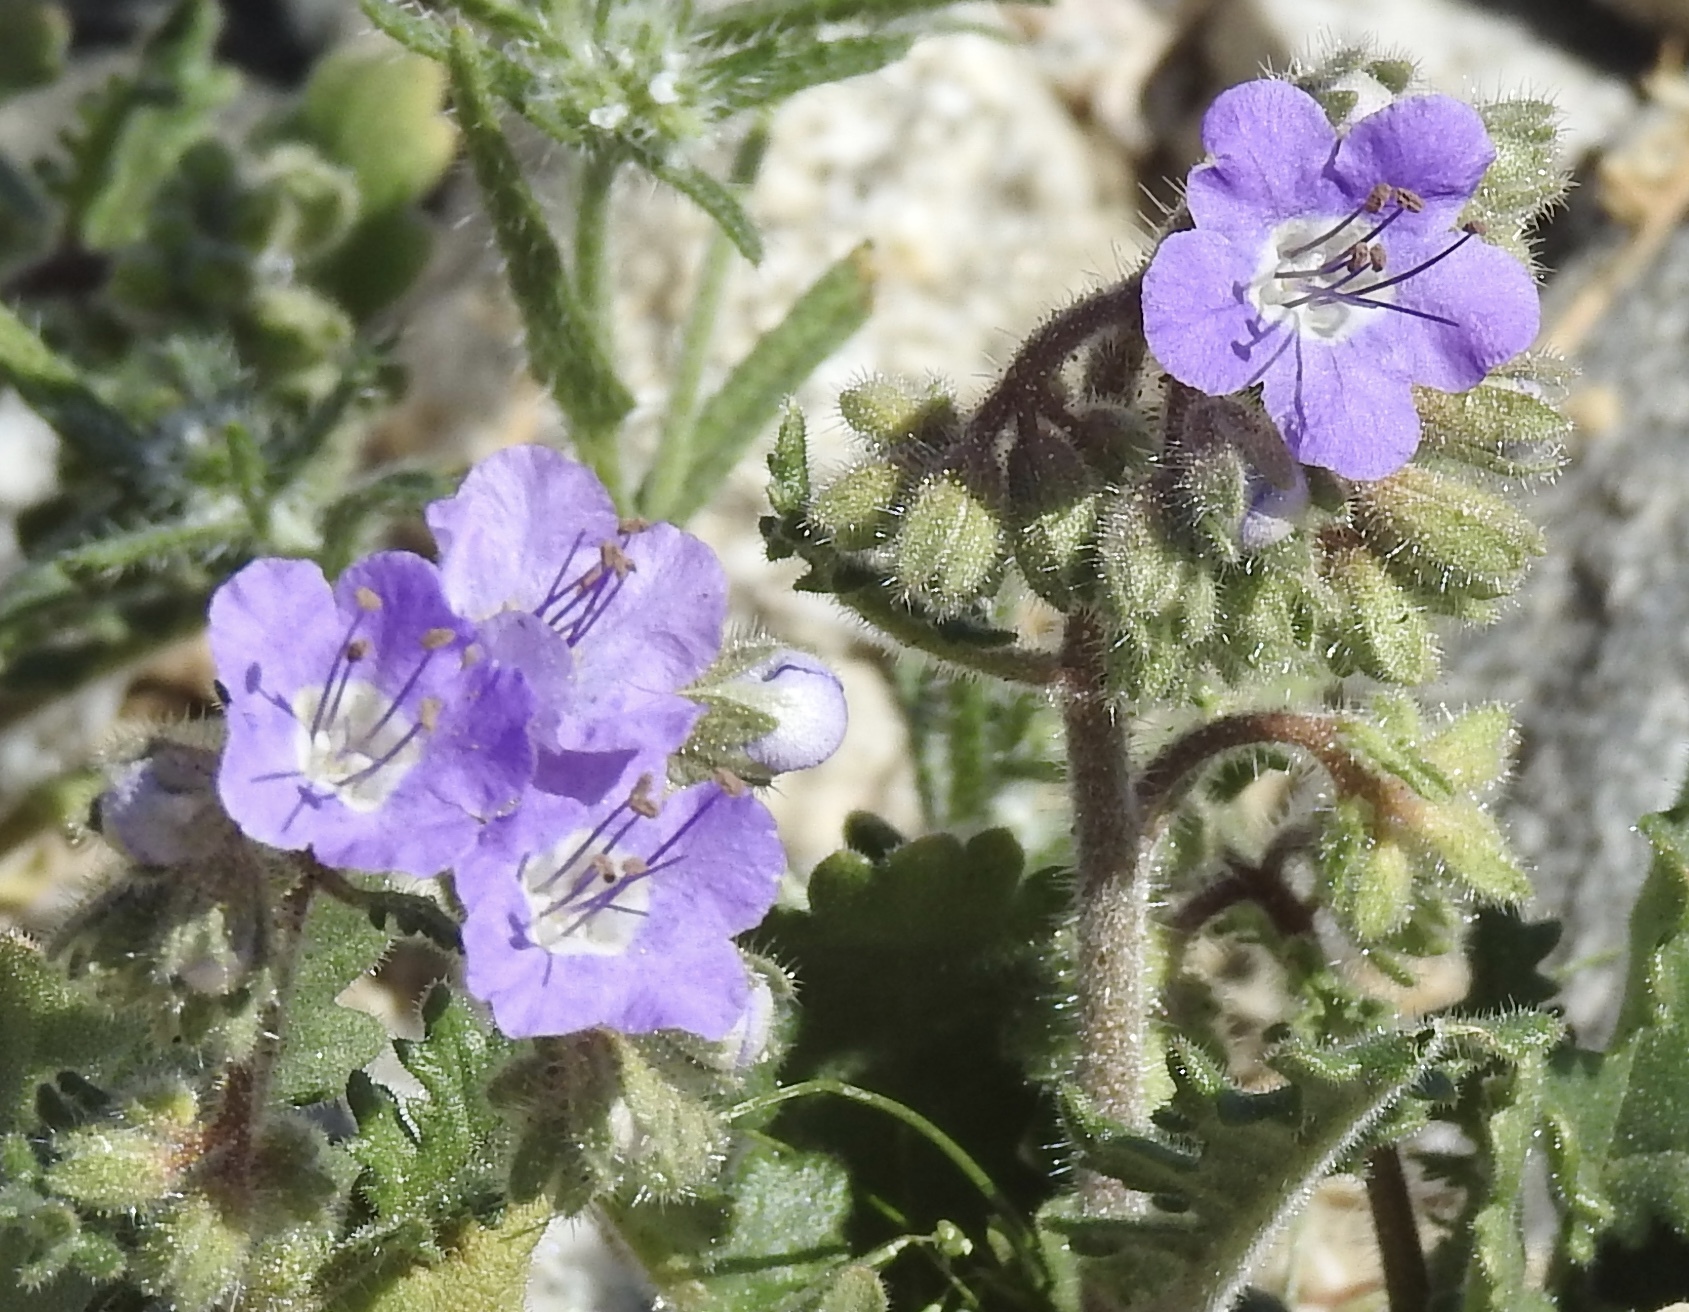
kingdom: Plantae
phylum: Tracheophyta
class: Magnoliopsida
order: Boraginales
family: Hydrophyllaceae
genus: Phacelia
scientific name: Phacelia crenulata
